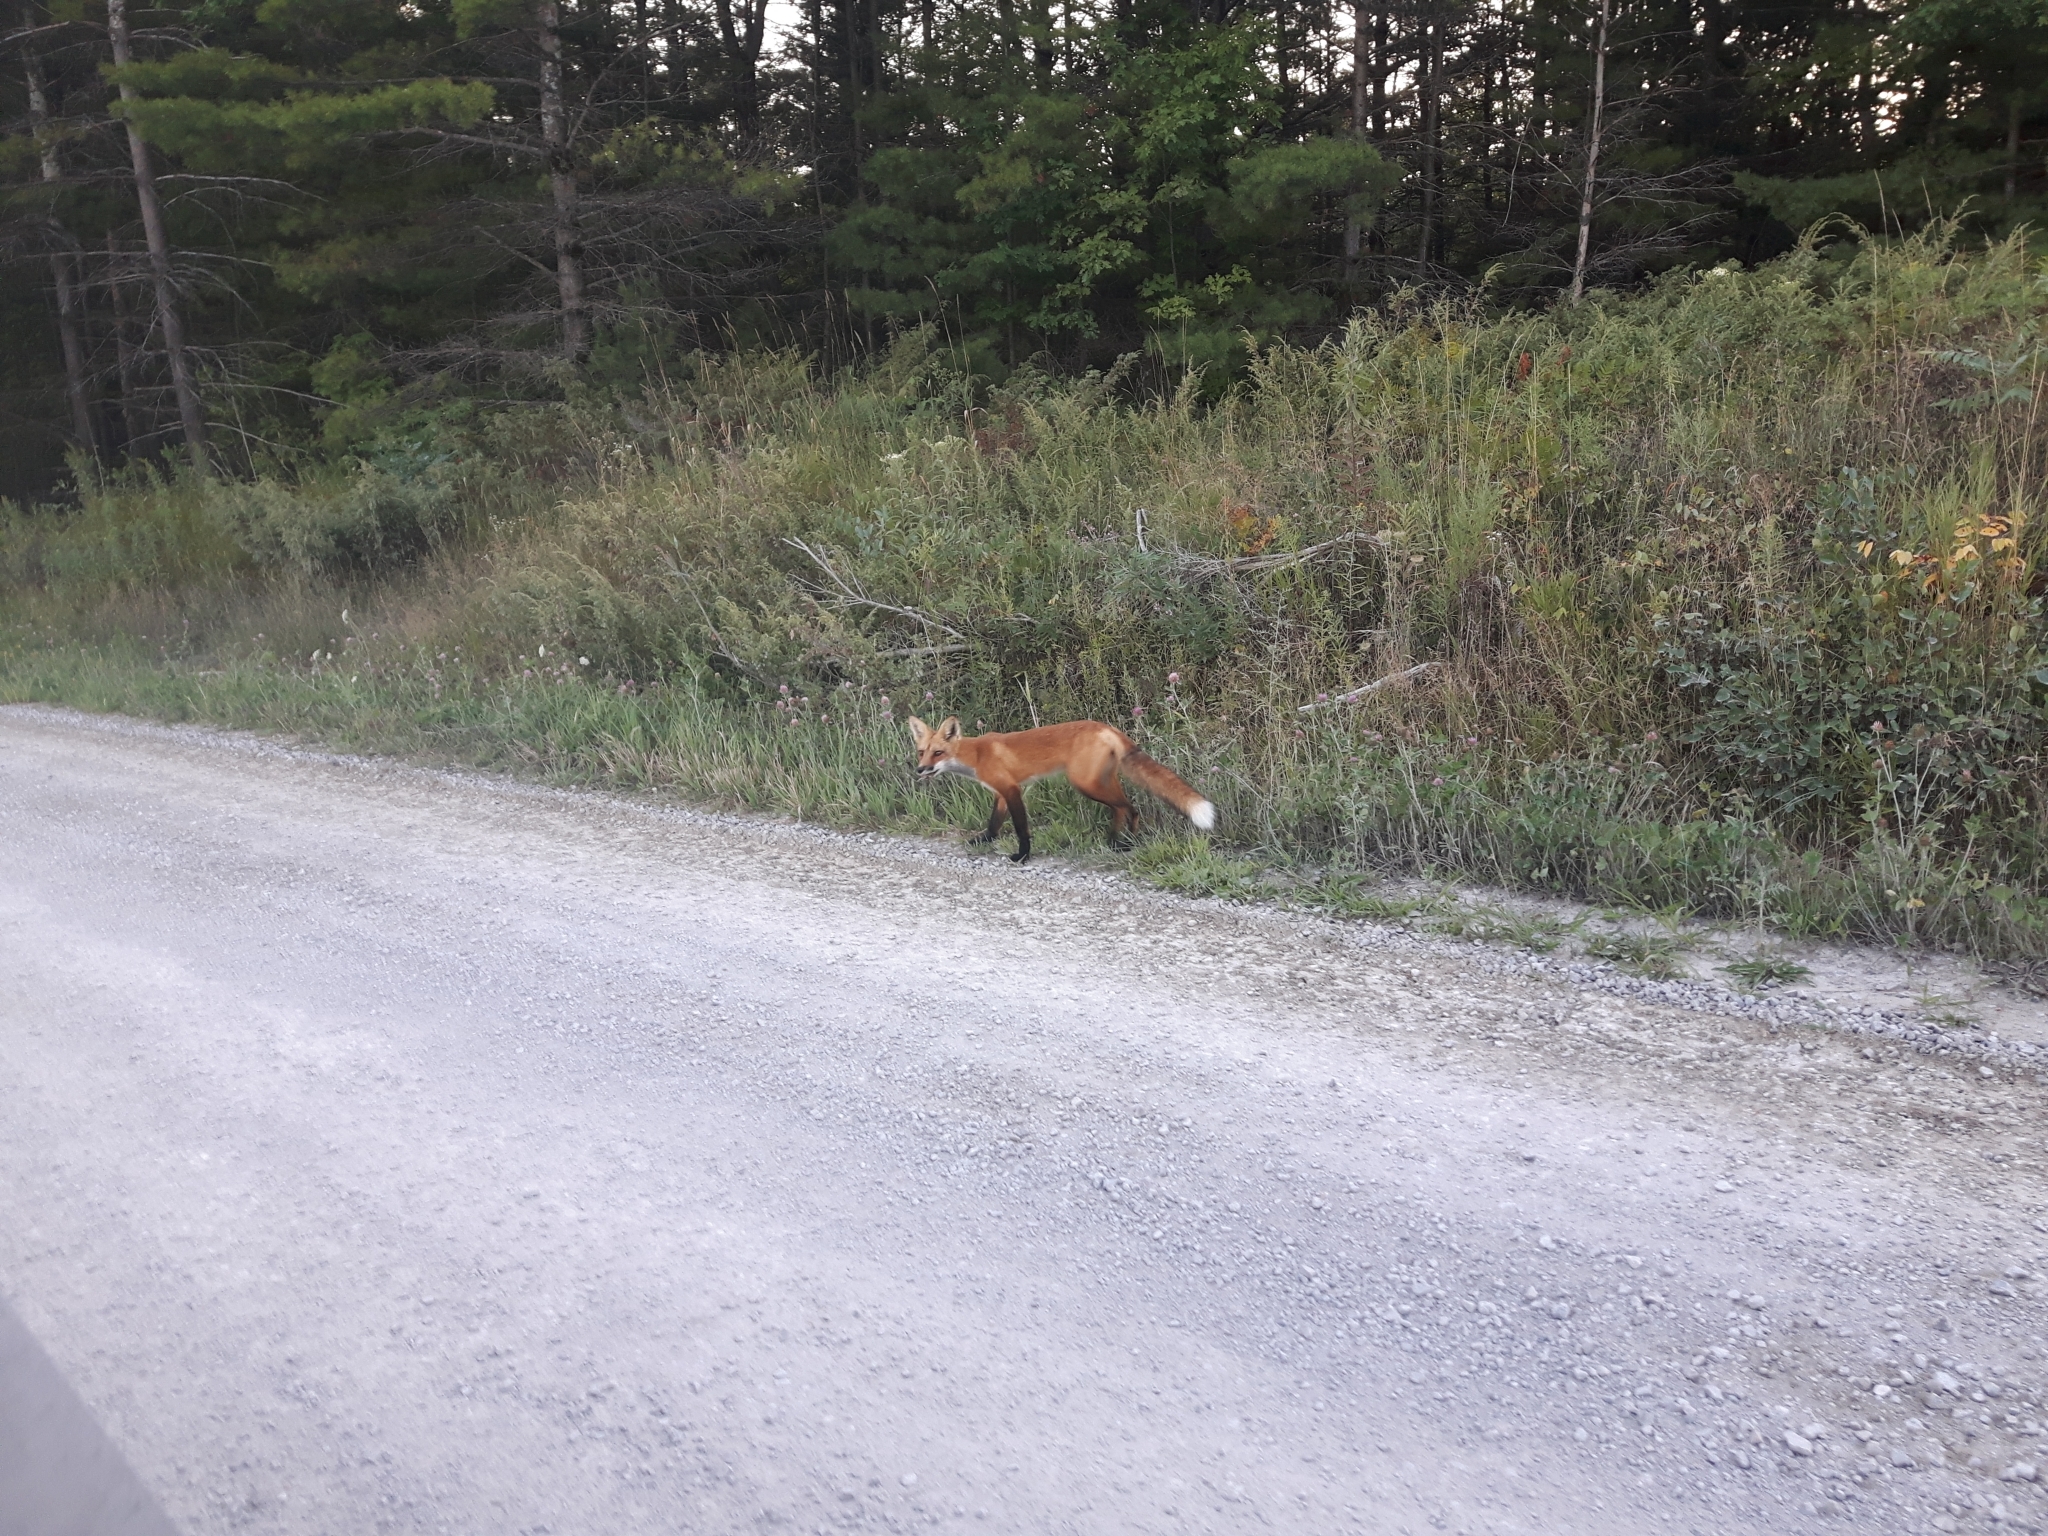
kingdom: Animalia
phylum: Chordata
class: Mammalia
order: Carnivora
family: Canidae
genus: Vulpes
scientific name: Vulpes vulpes
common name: Red fox
